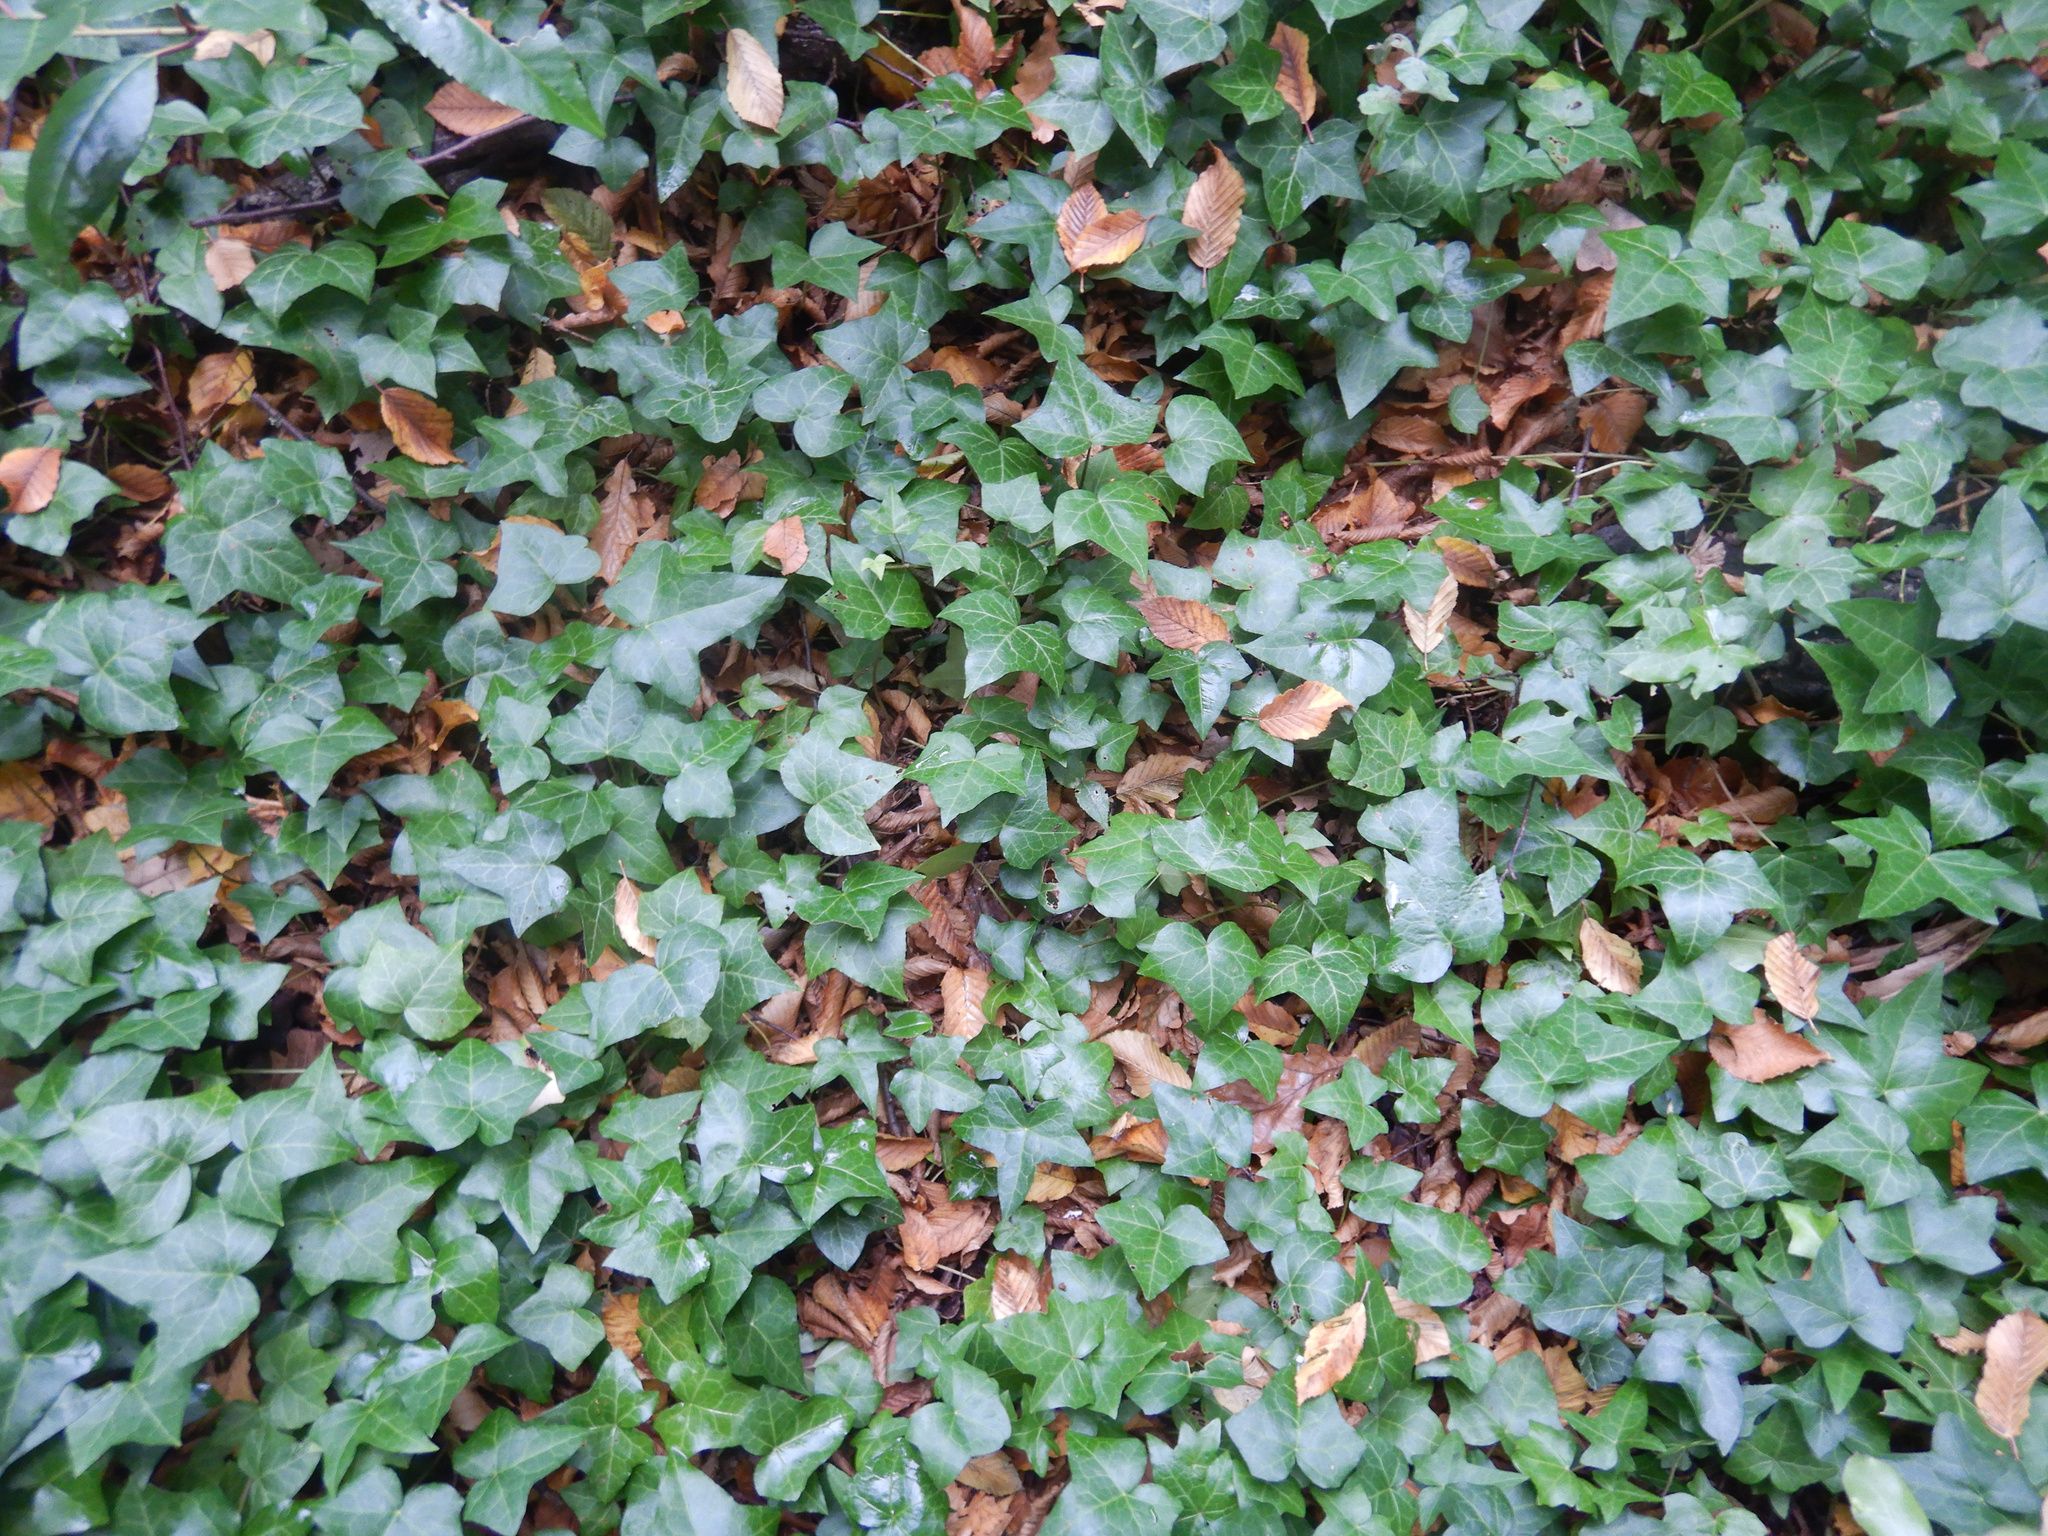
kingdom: Plantae
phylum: Tracheophyta
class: Magnoliopsida
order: Apiales
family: Araliaceae
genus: Hedera
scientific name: Hedera helix
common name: Ivy
